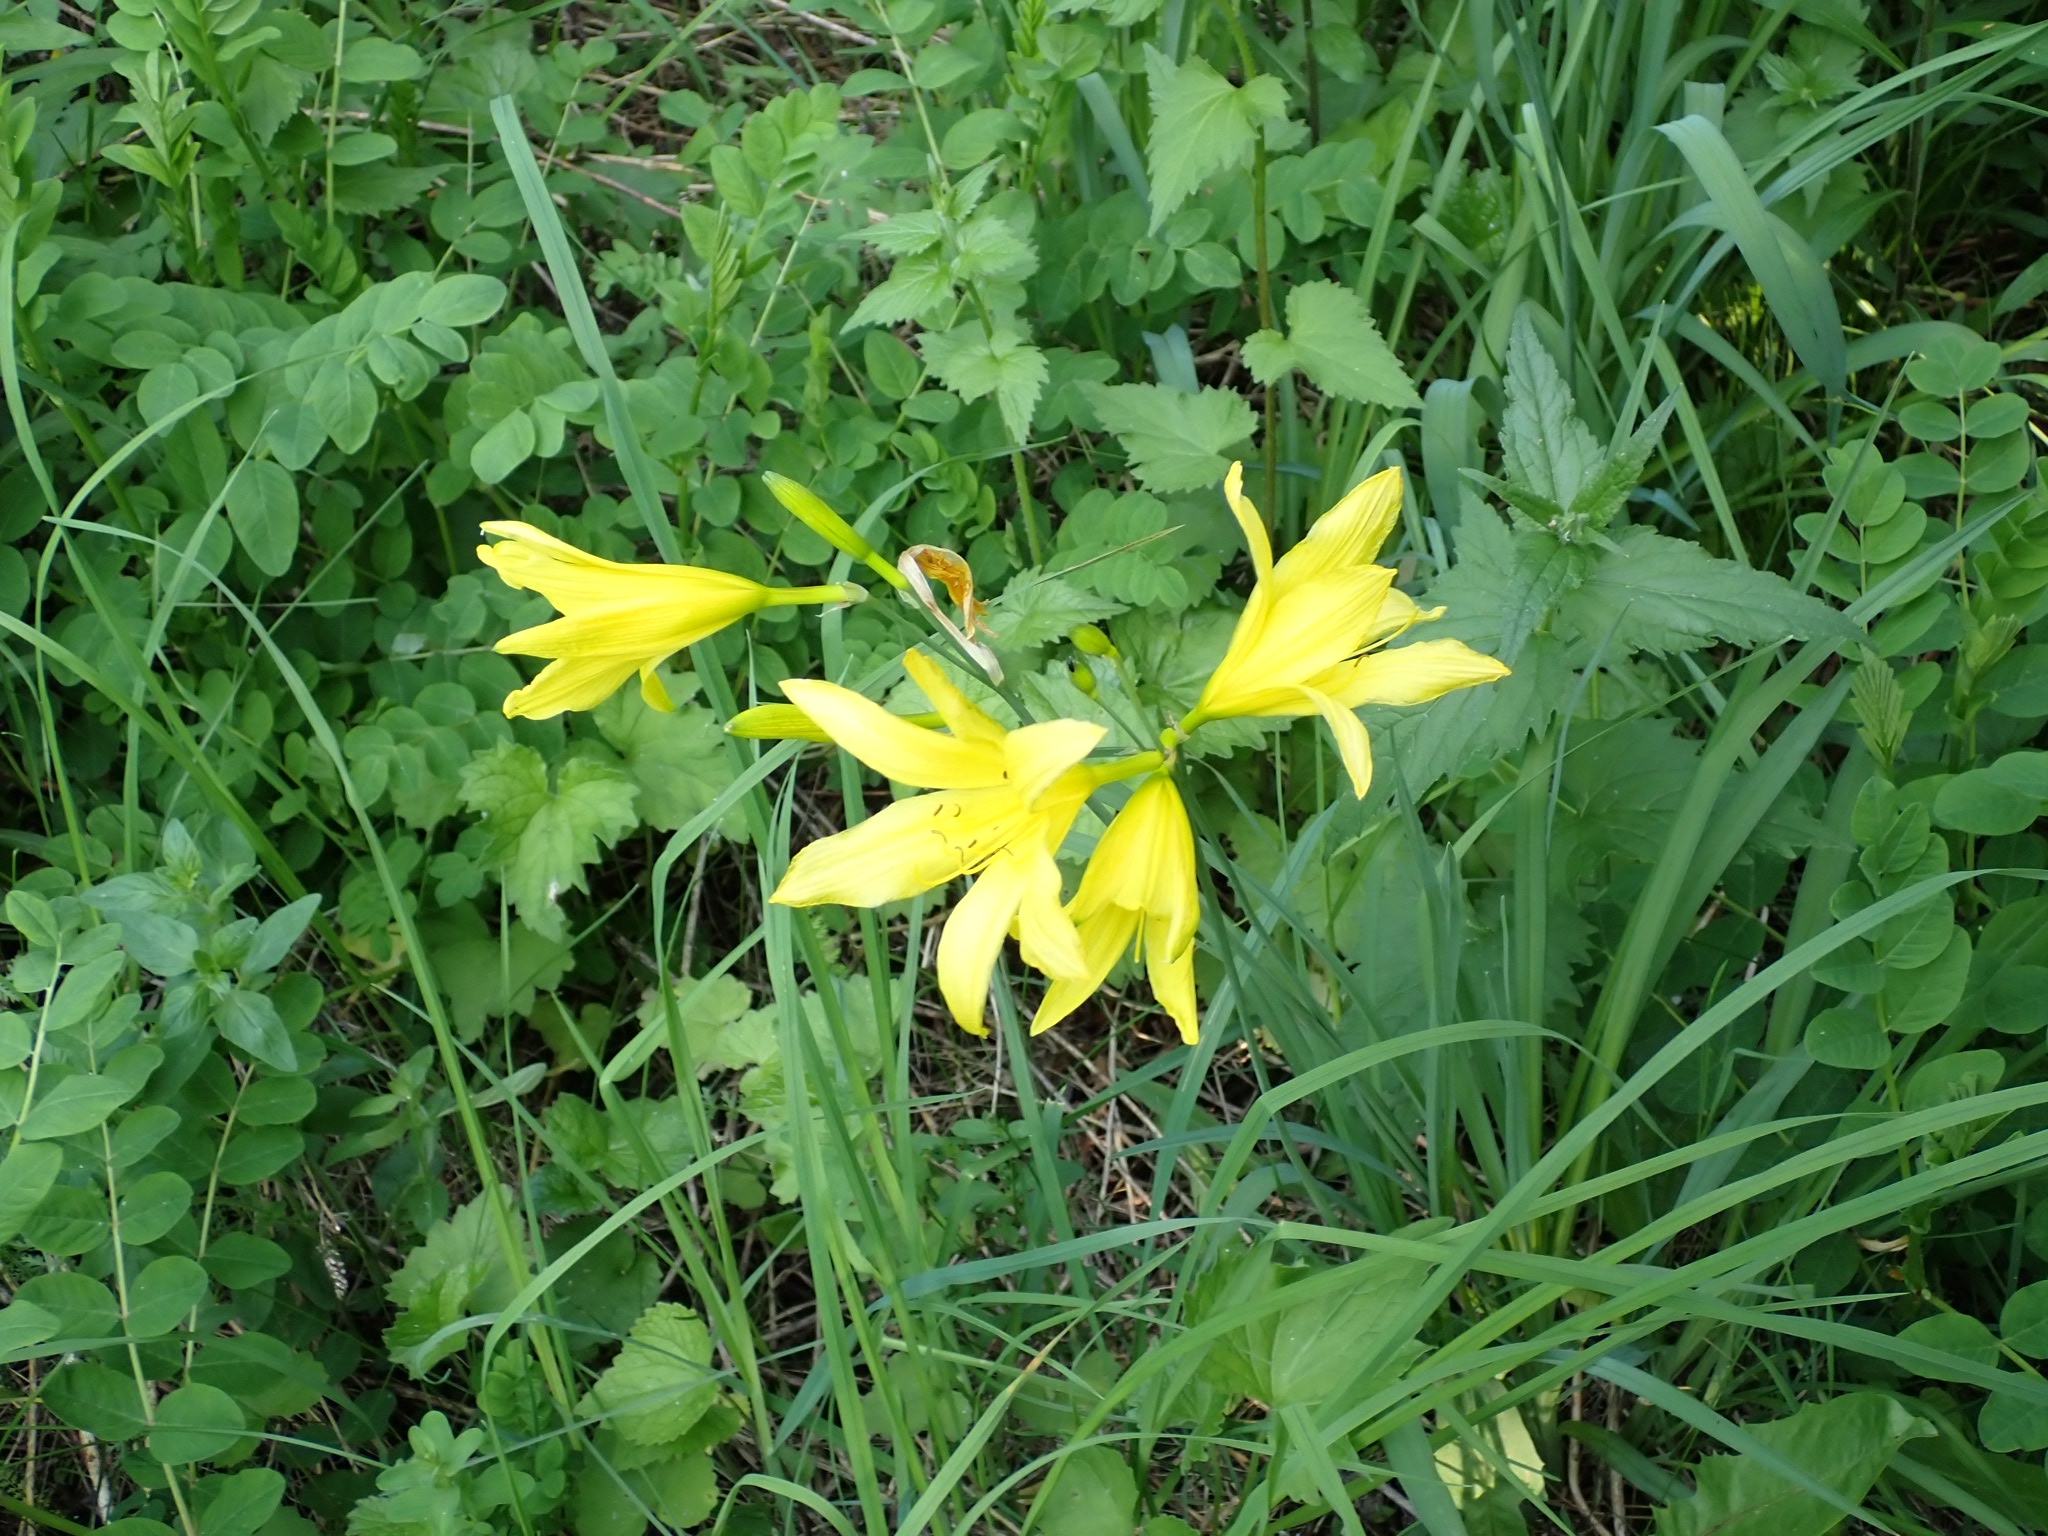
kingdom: Plantae
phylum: Tracheophyta
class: Liliopsida
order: Asparagales
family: Asphodelaceae
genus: Hemerocallis
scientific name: Hemerocallis minor
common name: Small daylily
